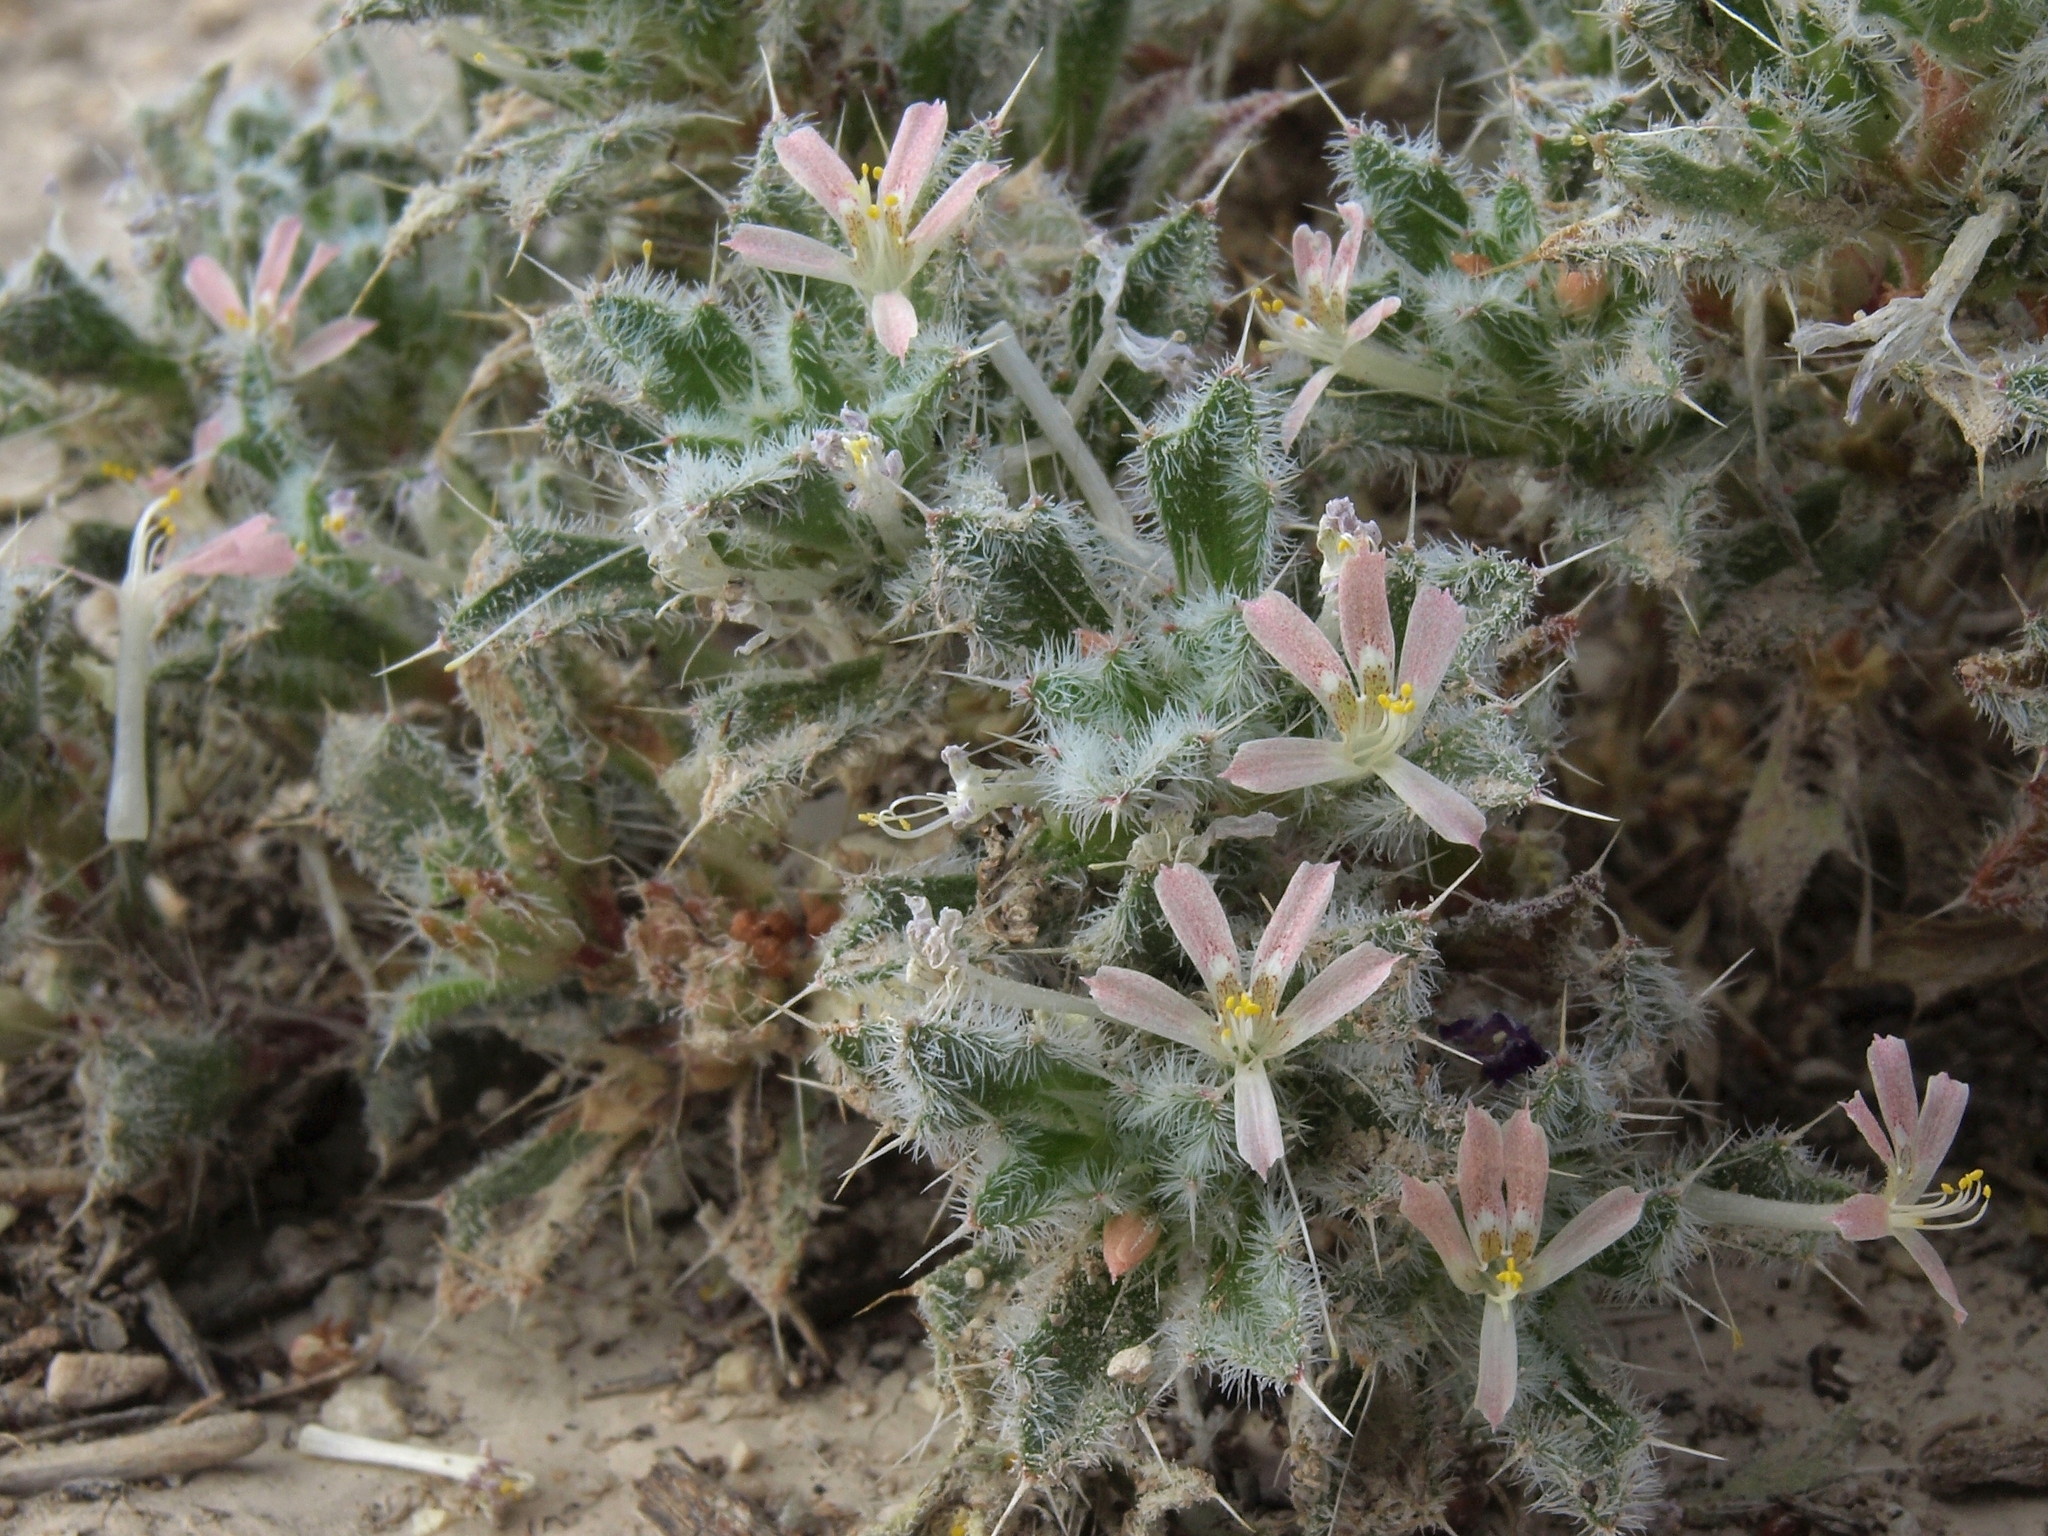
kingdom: Plantae
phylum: Tracheophyta
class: Magnoliopsida
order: Ericales
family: Polemoniaceae
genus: Loeseliastrum
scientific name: Loeseliastrum schottii
